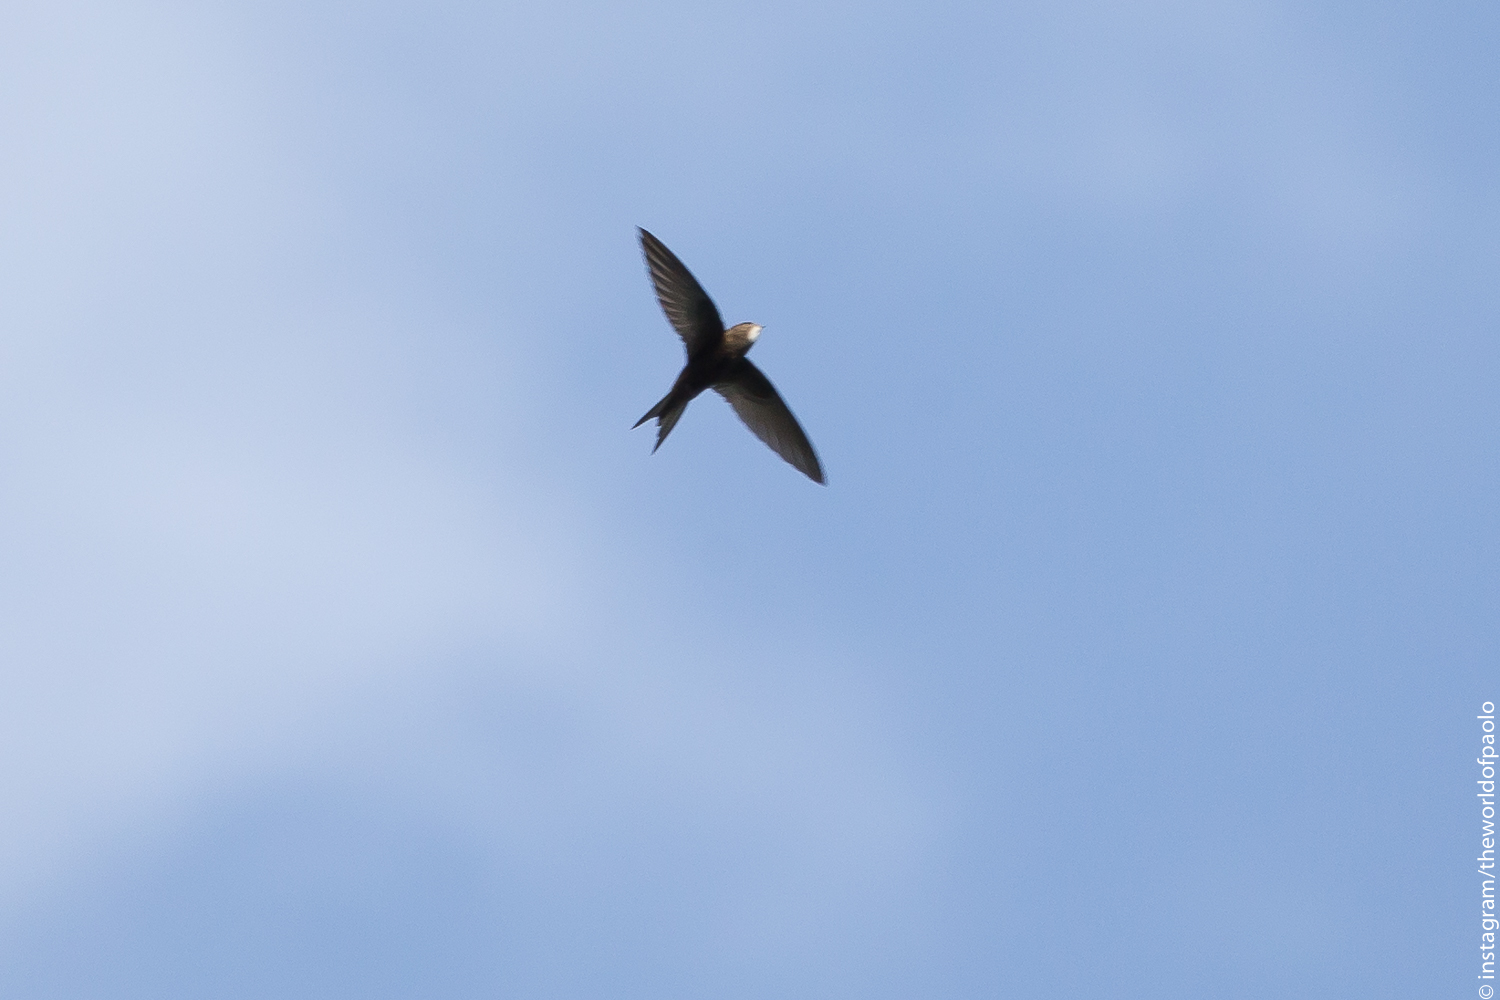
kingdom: Animalia
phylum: Chordata
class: Aves
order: Apodiformes
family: Apodidae
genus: Apus
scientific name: Apus apus
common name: Common swift
